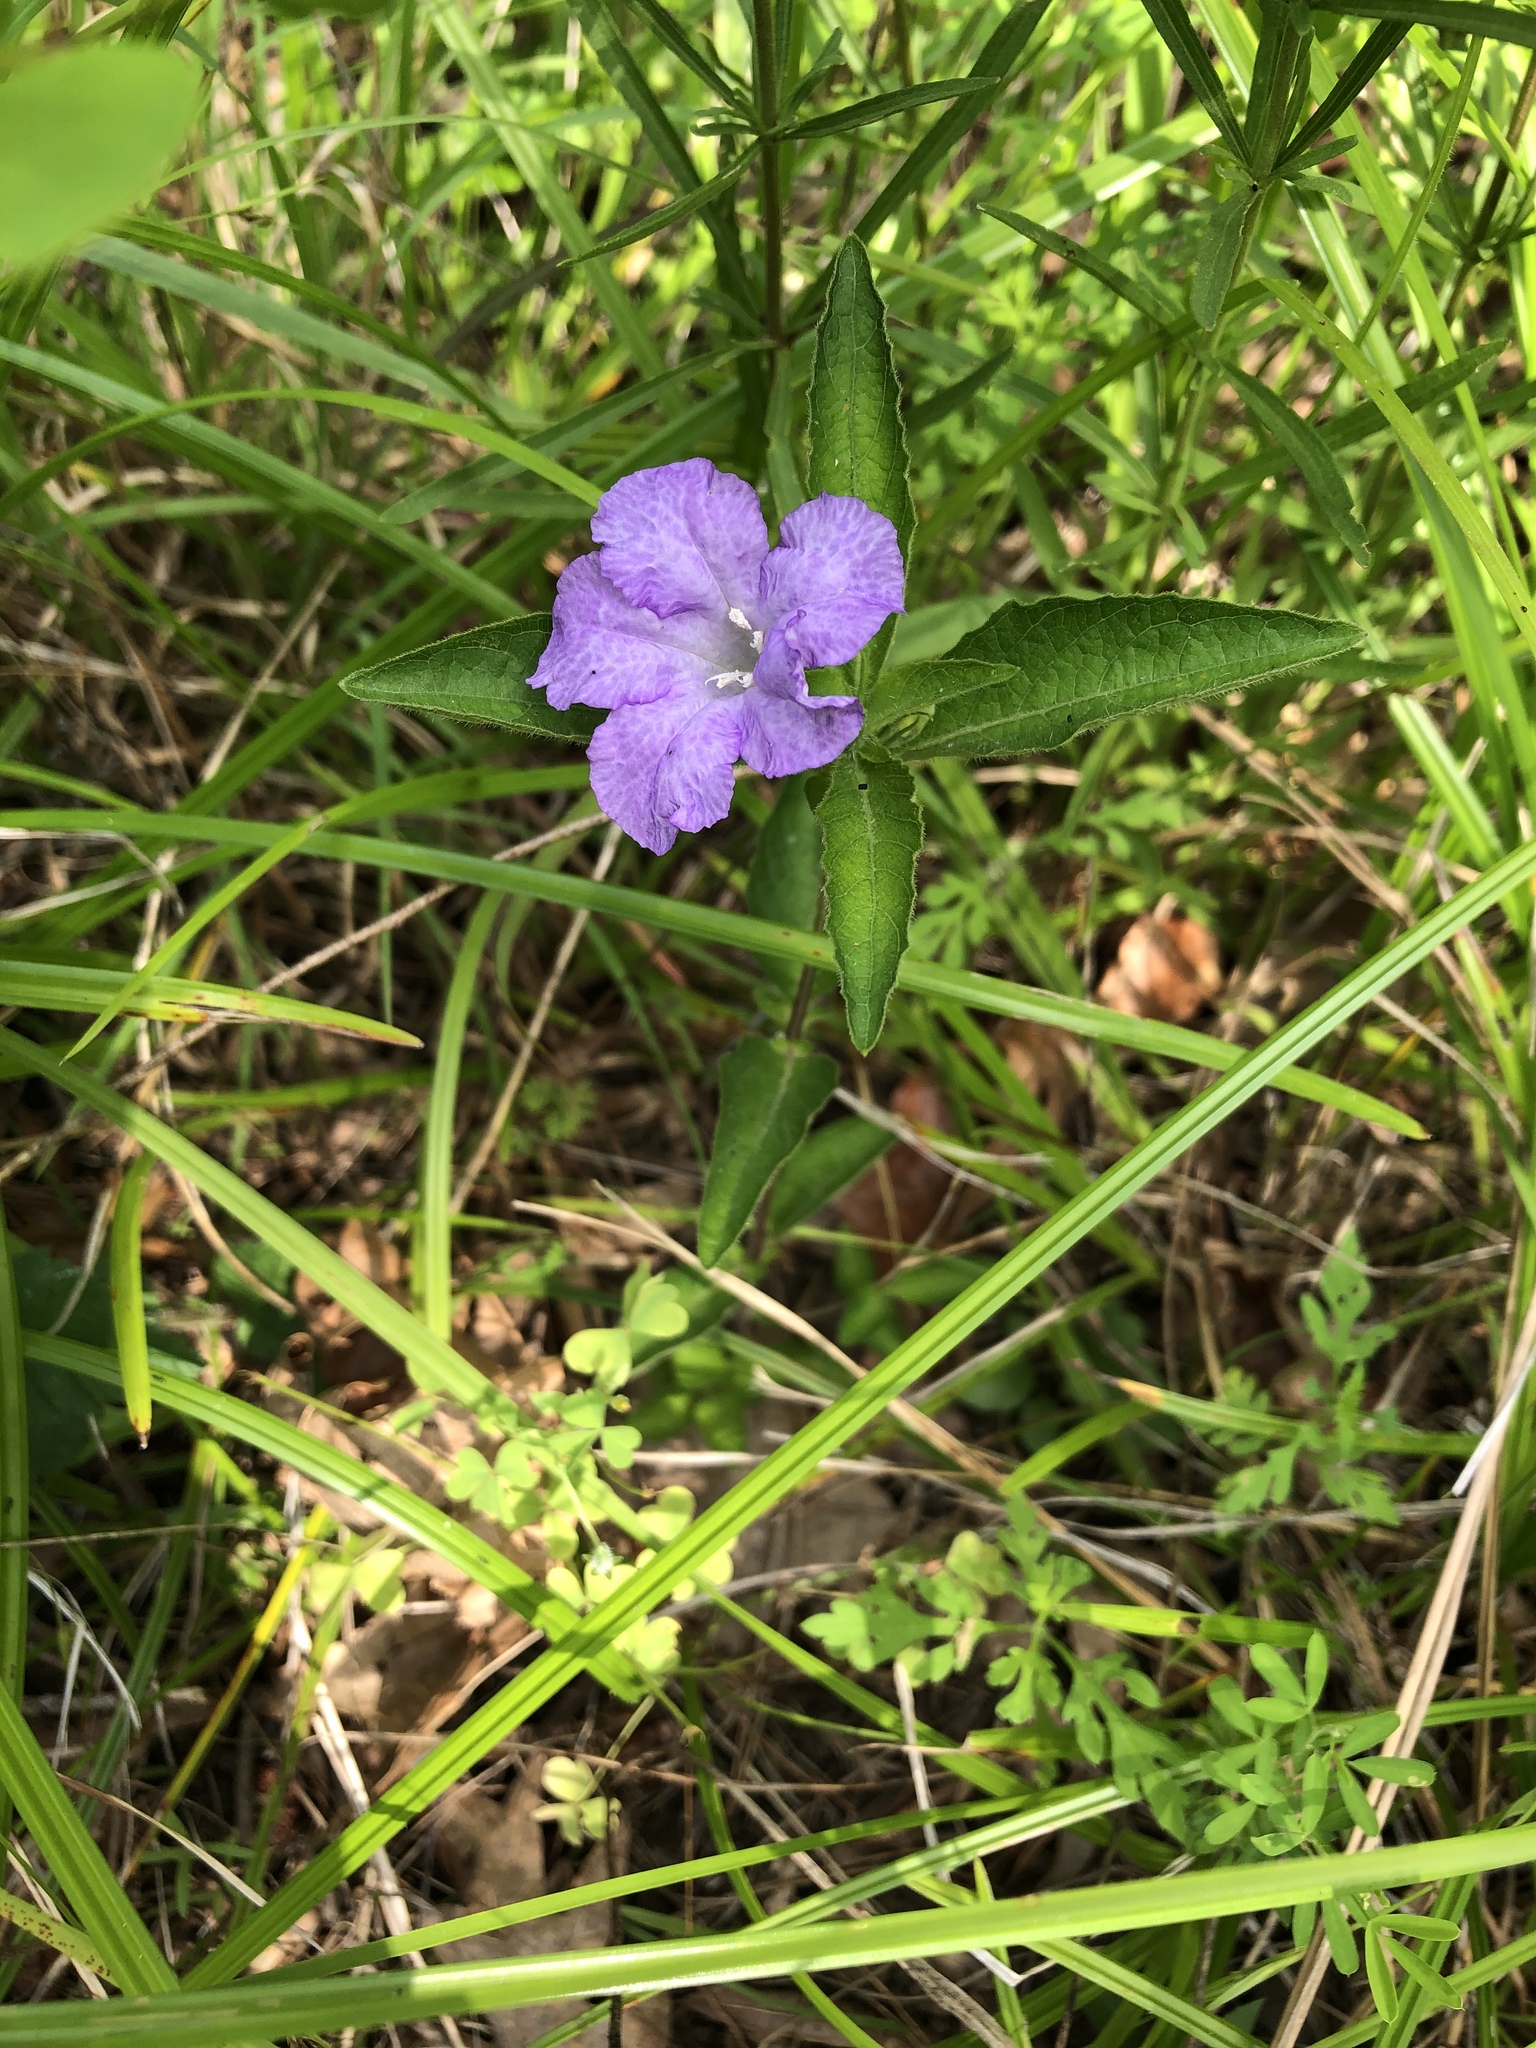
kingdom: Plantae
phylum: Tracheophyta
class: Magnoliopsida
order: Lamiales
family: Acanthaceae
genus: Ruellia
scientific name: Ruellia caroliniensis
